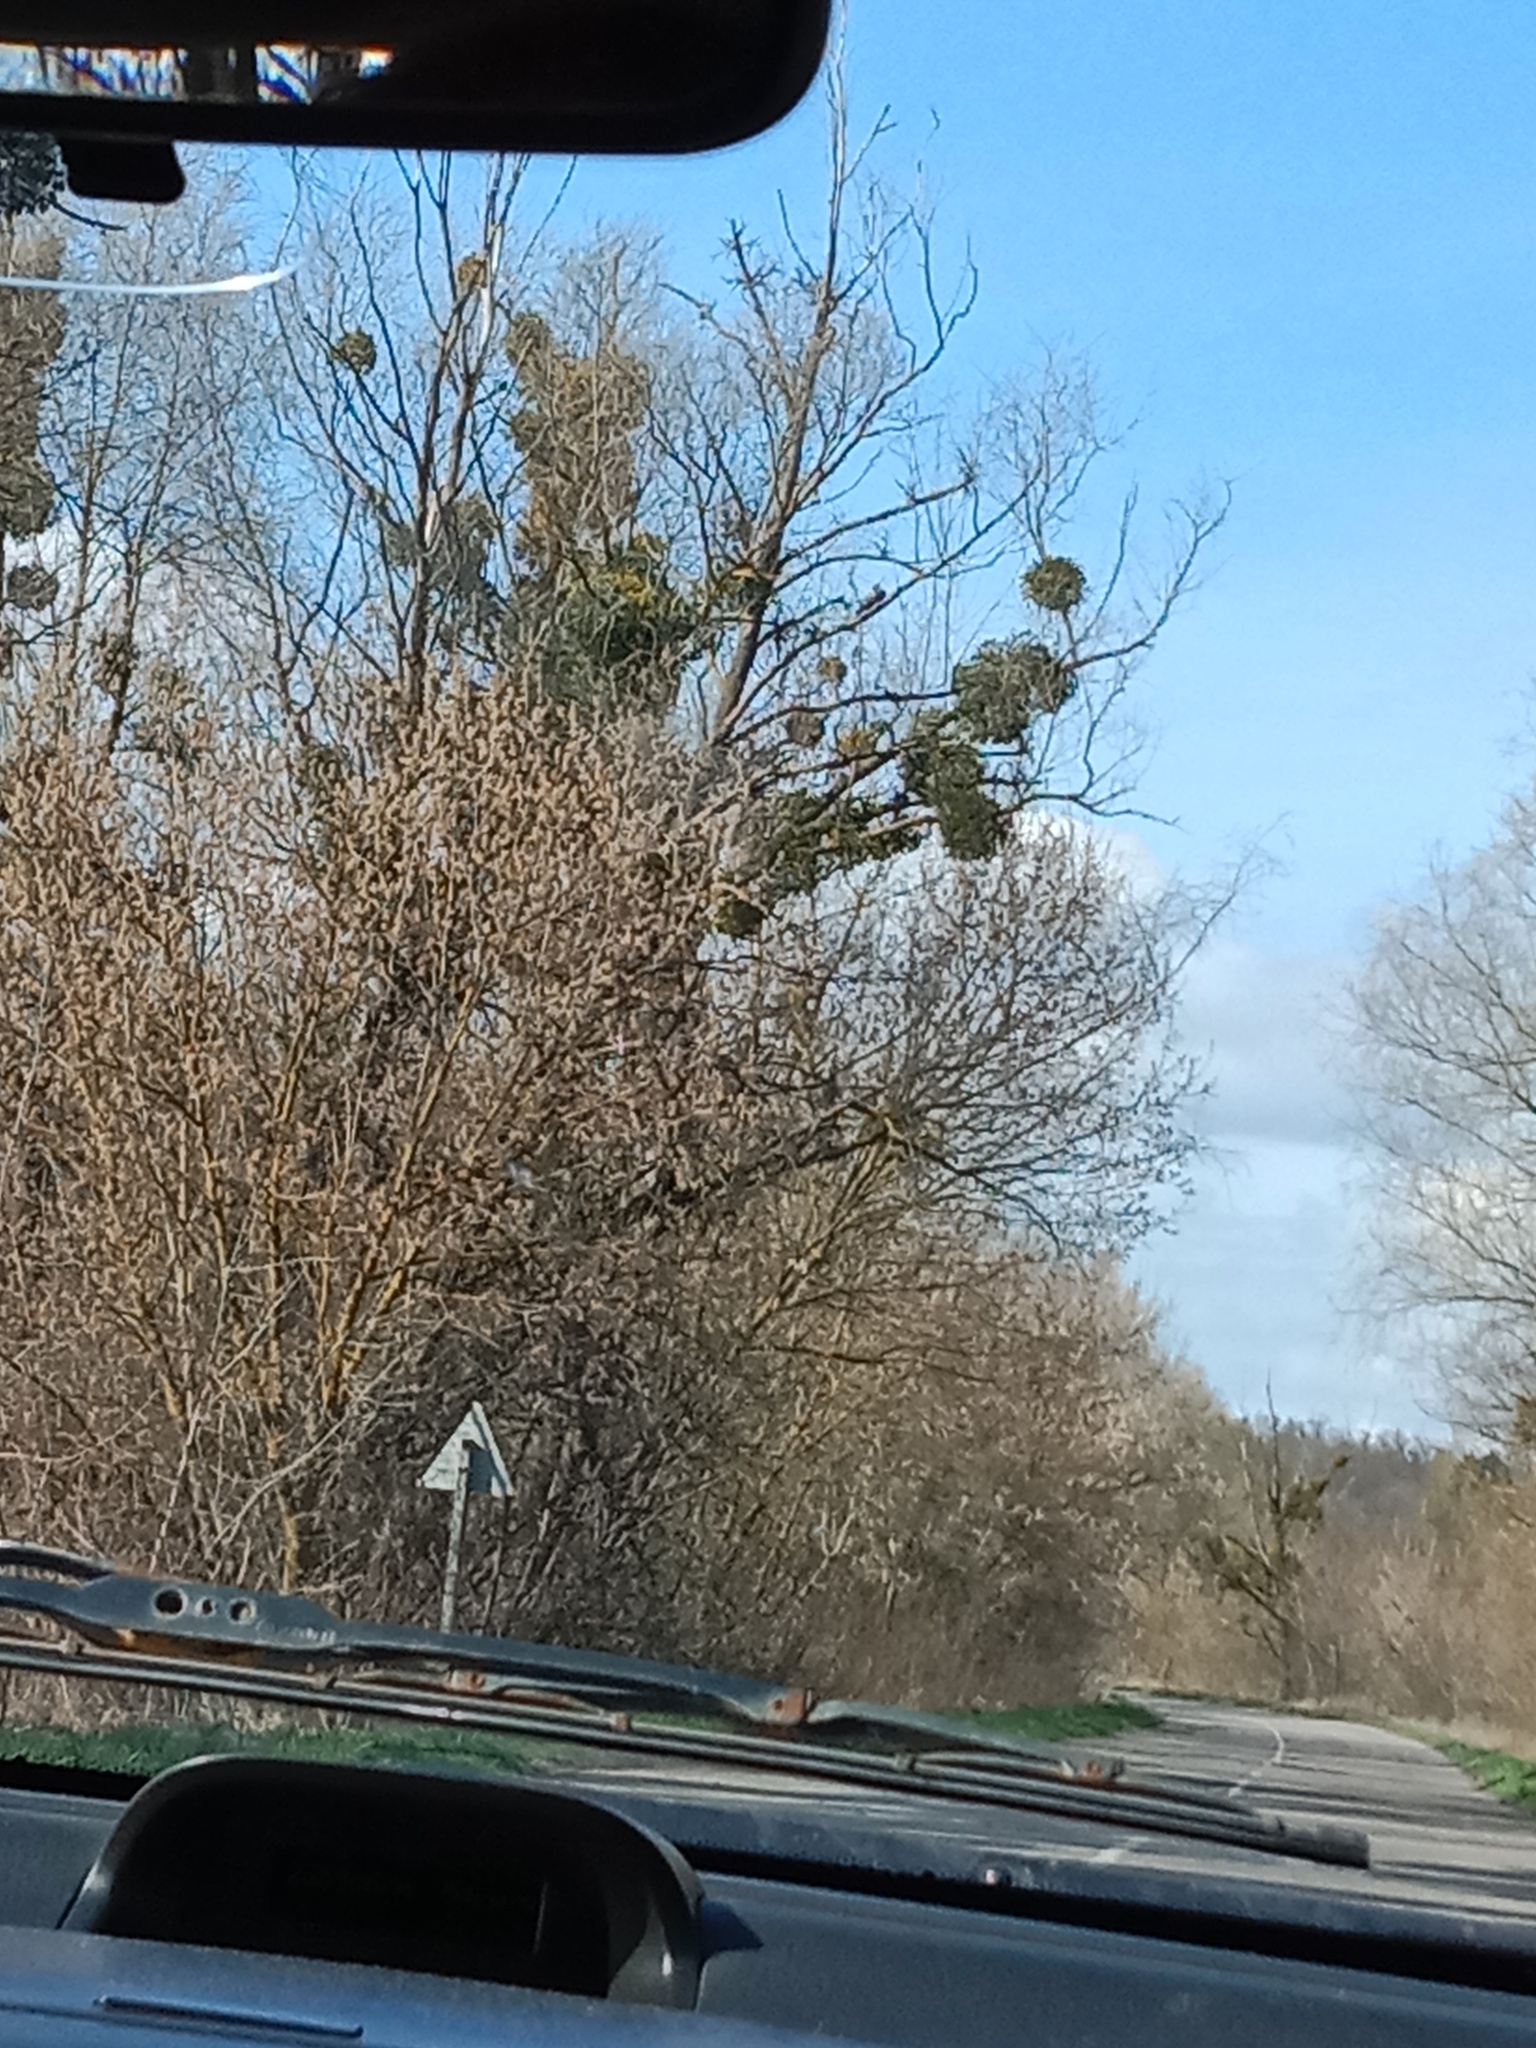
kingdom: Plantae
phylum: Tracheophyta
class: Magnoliopsida
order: Santalales
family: Viscaceae
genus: Viscum
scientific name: Viscum album
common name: Mistletoe
